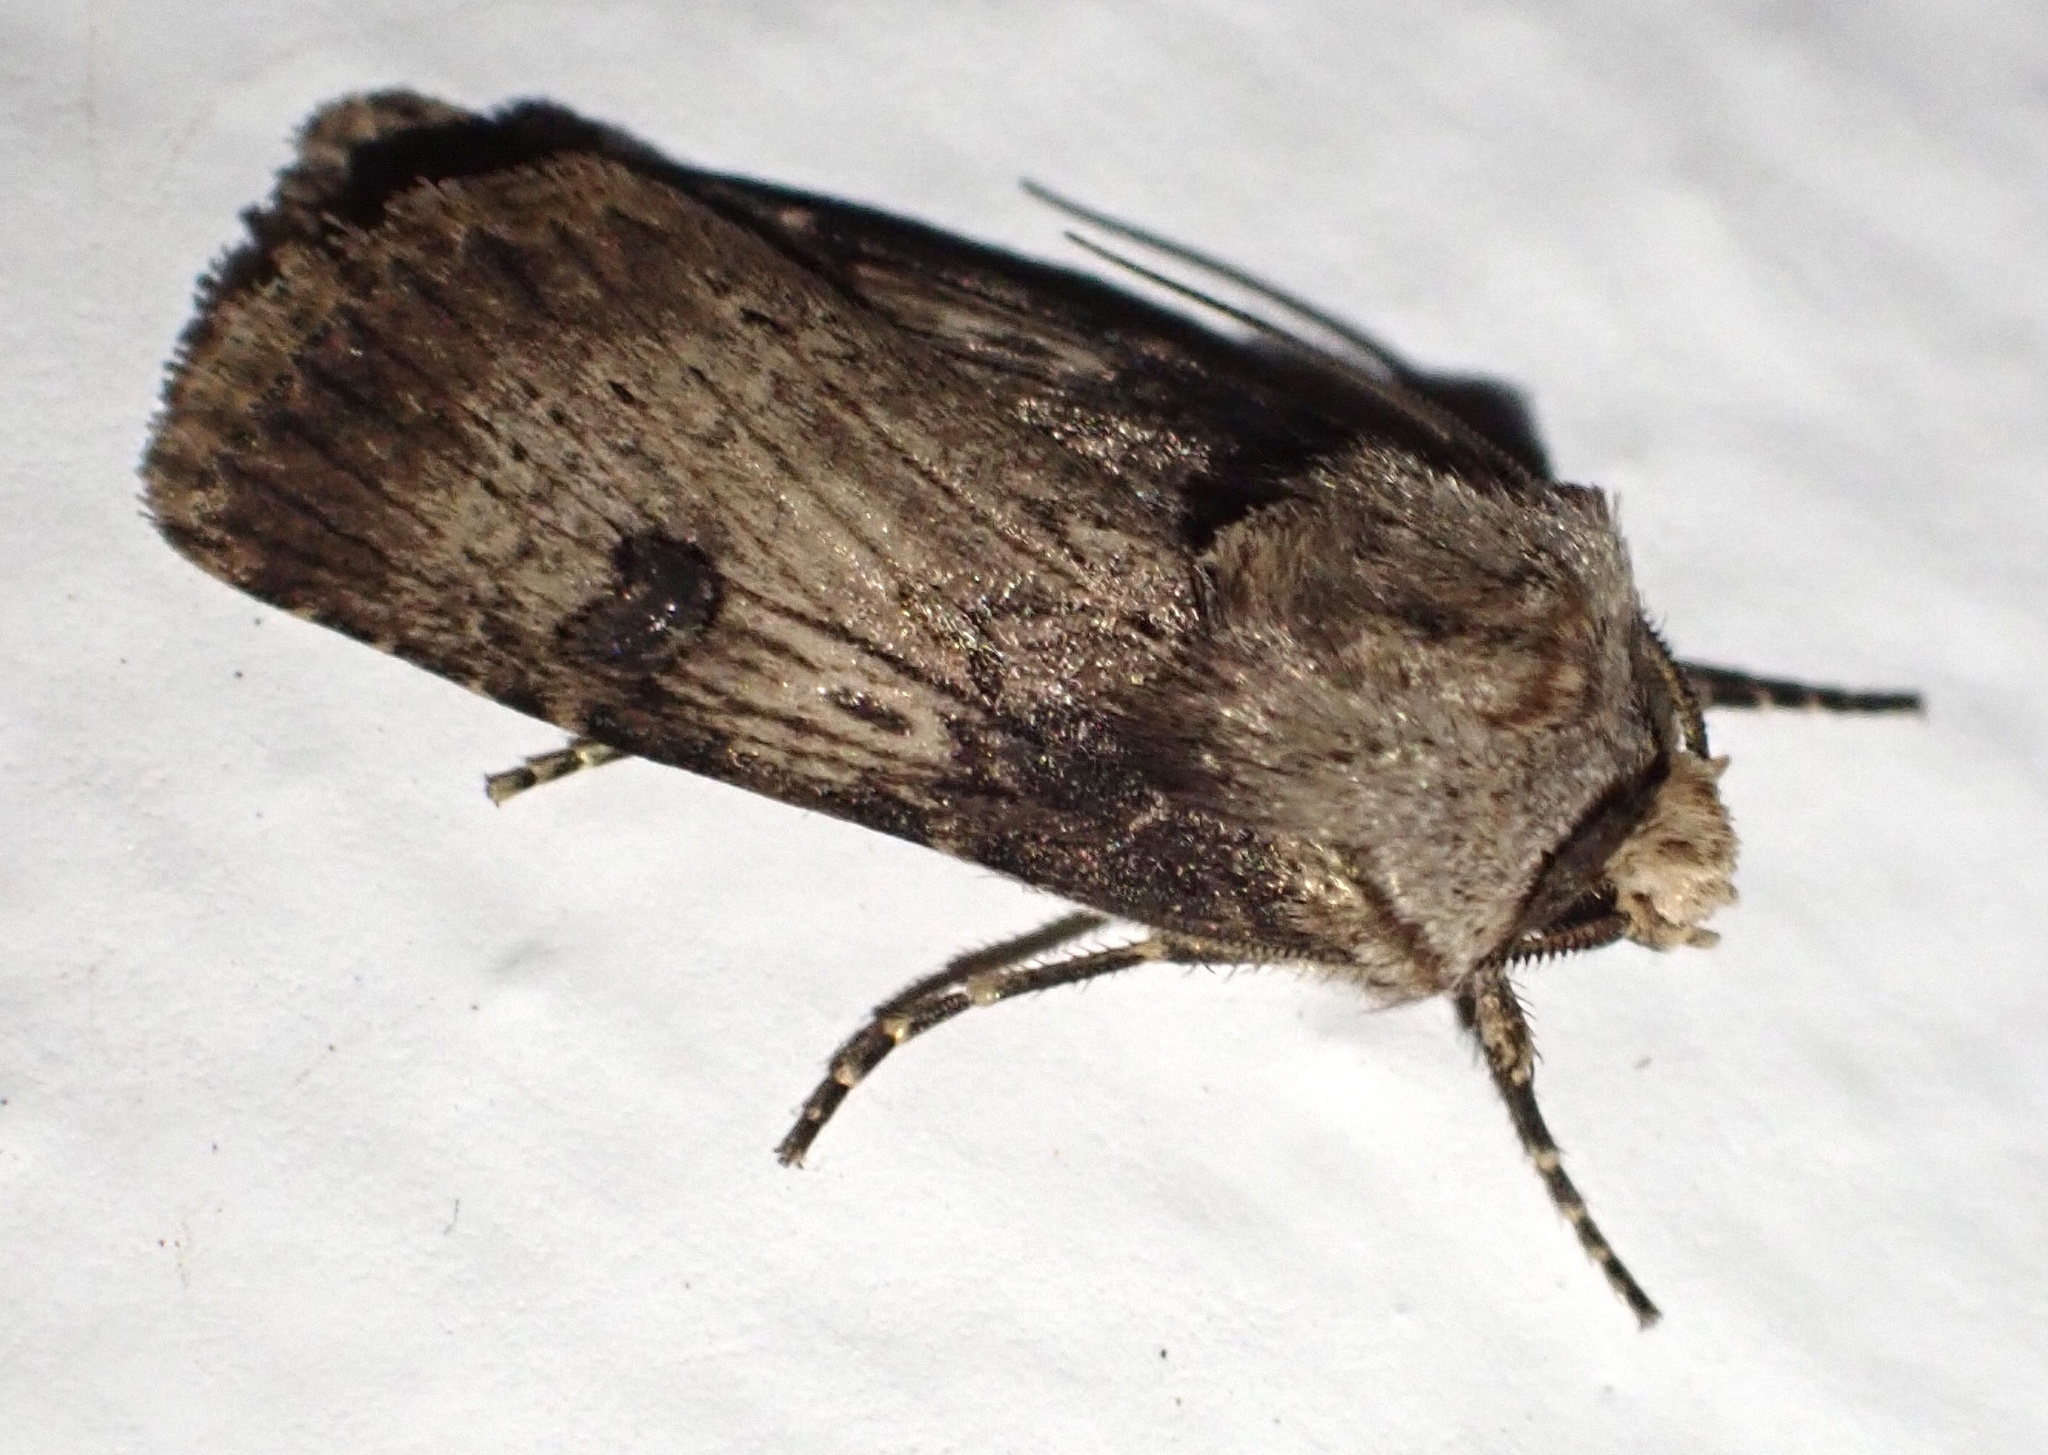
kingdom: Animalia
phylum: Arthropoda
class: Insecta
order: Lepidoptera
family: Noctuidae
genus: Agrotis
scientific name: Agrotis puta
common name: Shuttle-shaped dart
